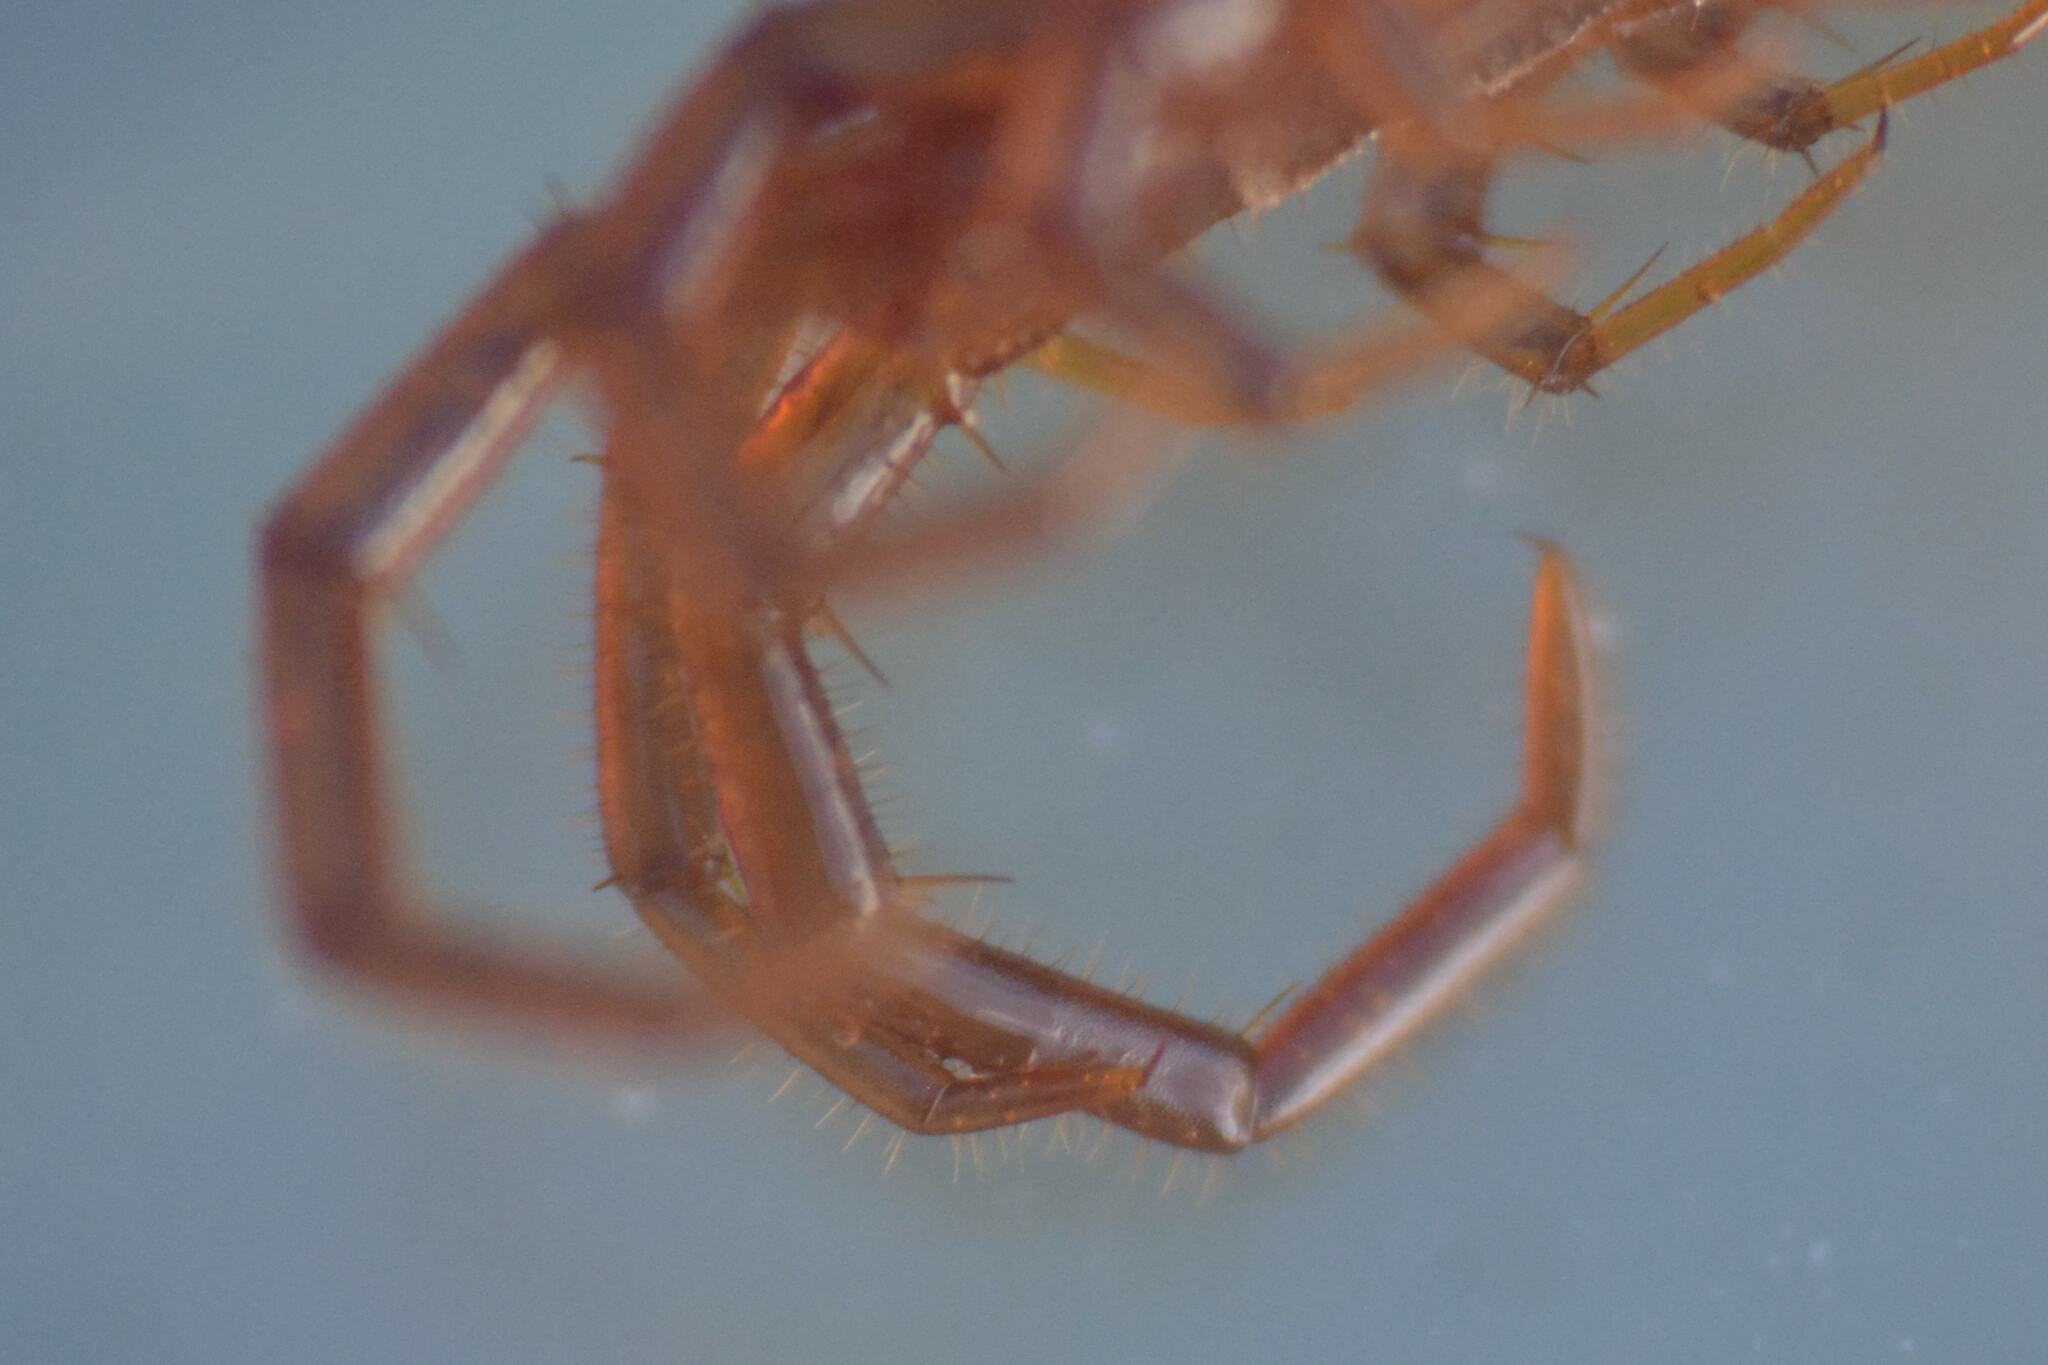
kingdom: Animalia
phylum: Arthropoda
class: Chilopoda
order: Lithobiomorpha
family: Lithobiidae
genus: Lithobius
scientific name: Lithobius forficatus
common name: Centipede
